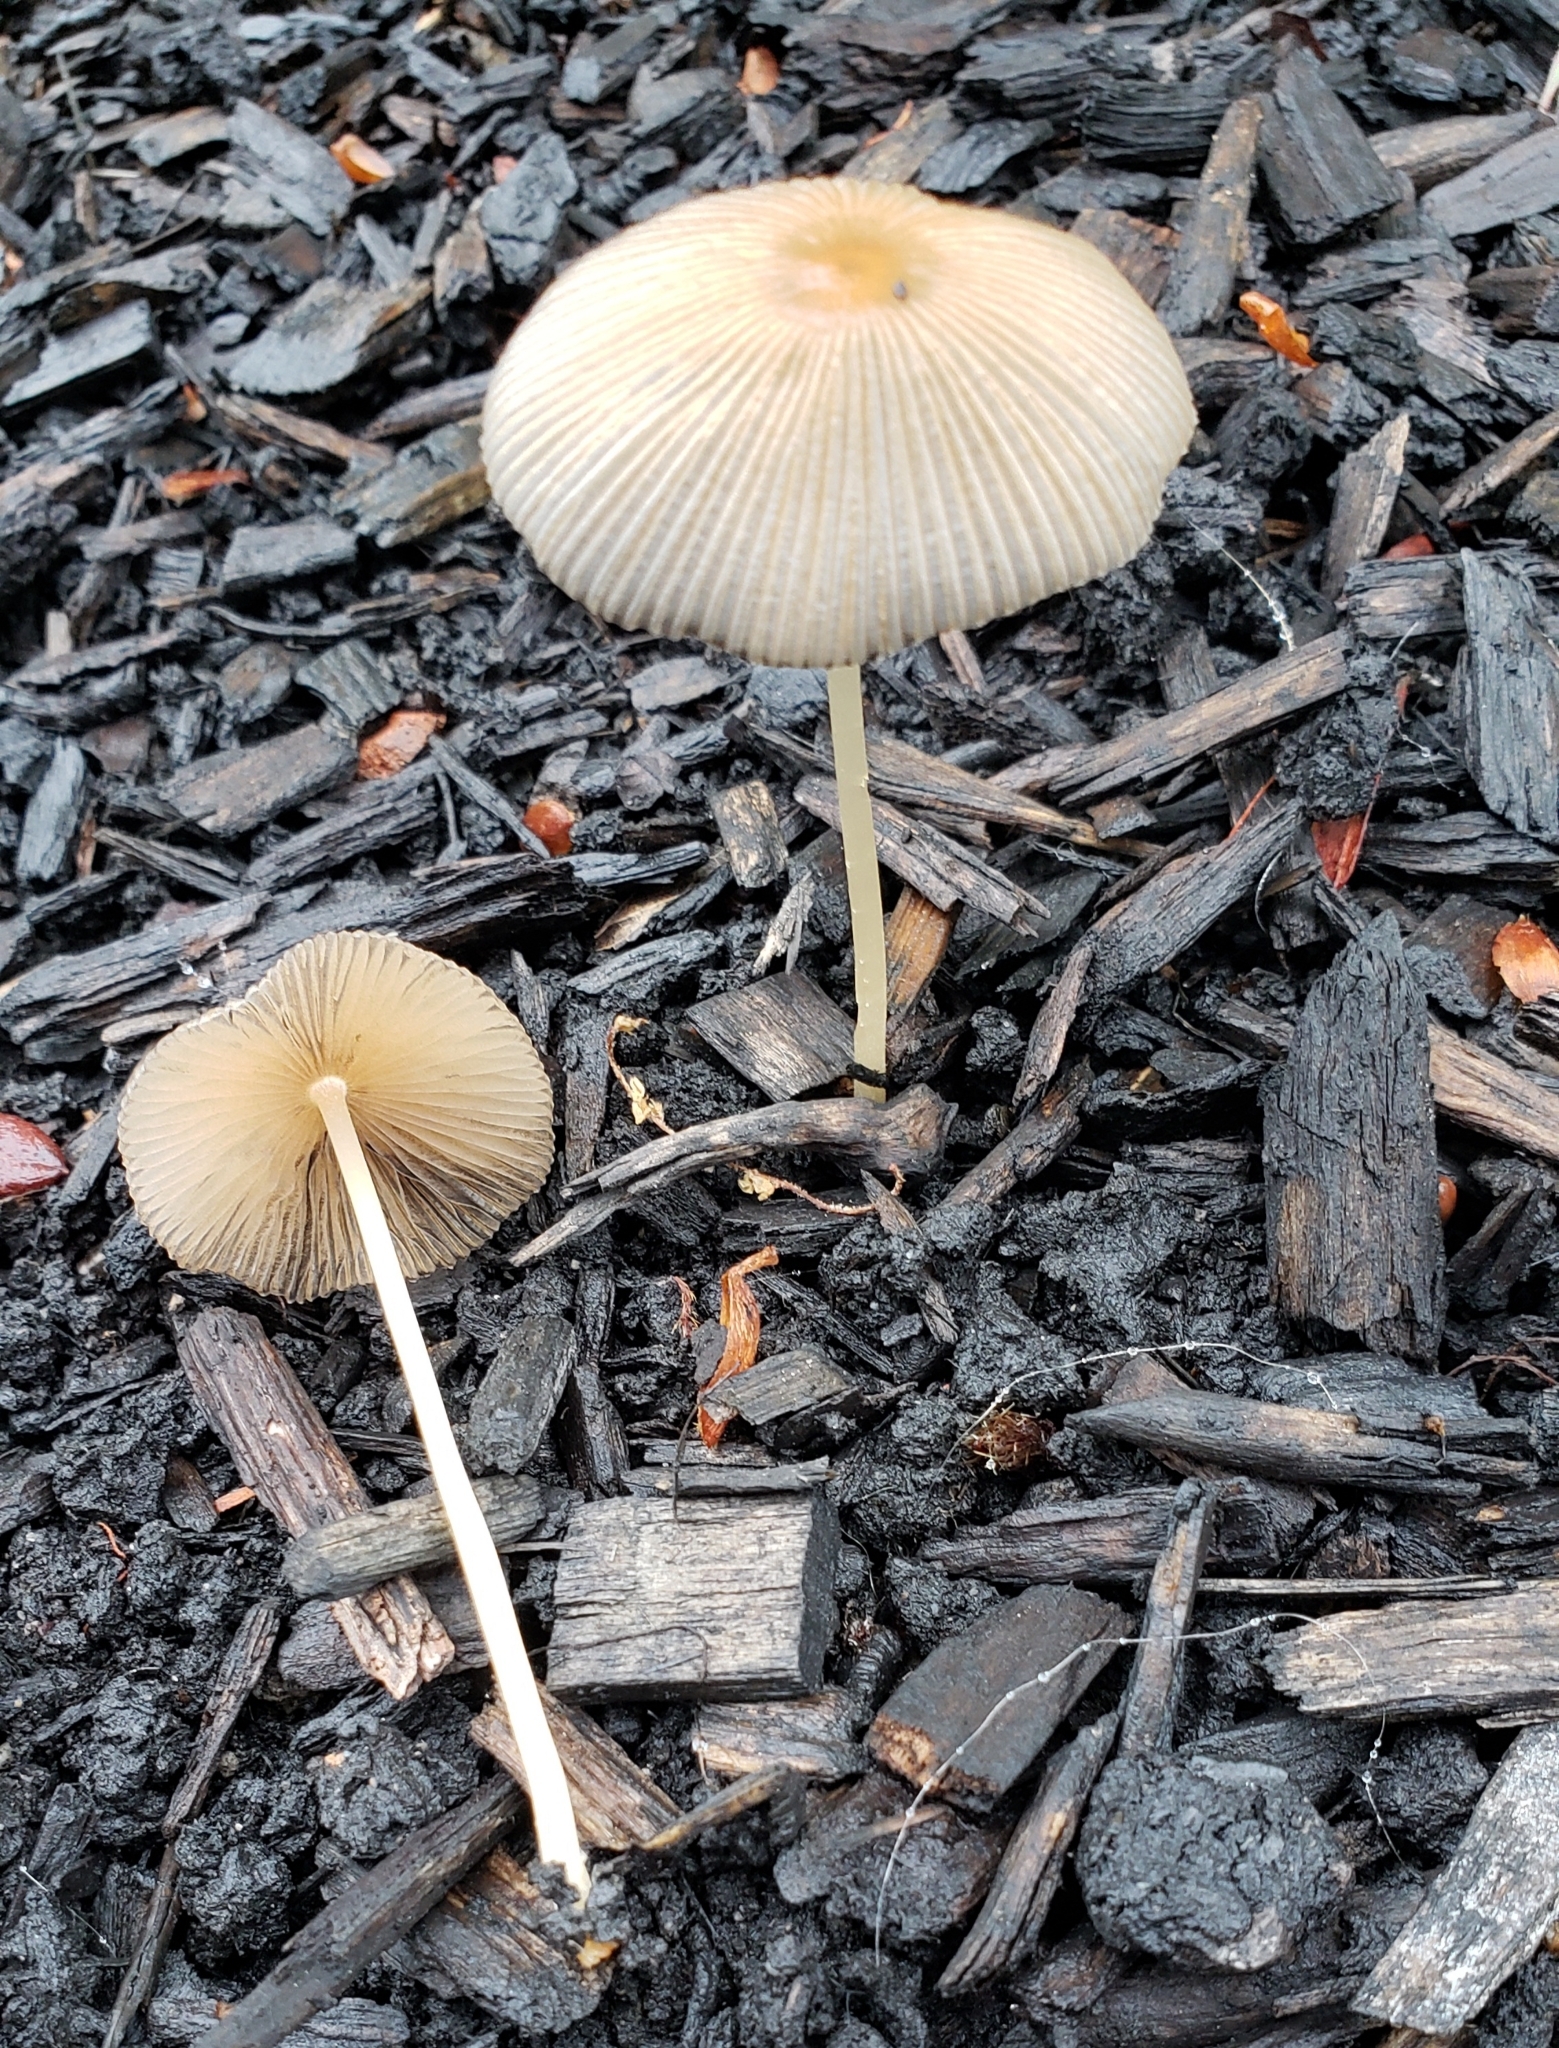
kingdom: Fungi
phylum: Basidiomycota
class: Agaricomycetes
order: Agaricales
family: Psathyrellaceae
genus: Parasola
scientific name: Parasola setulosa
